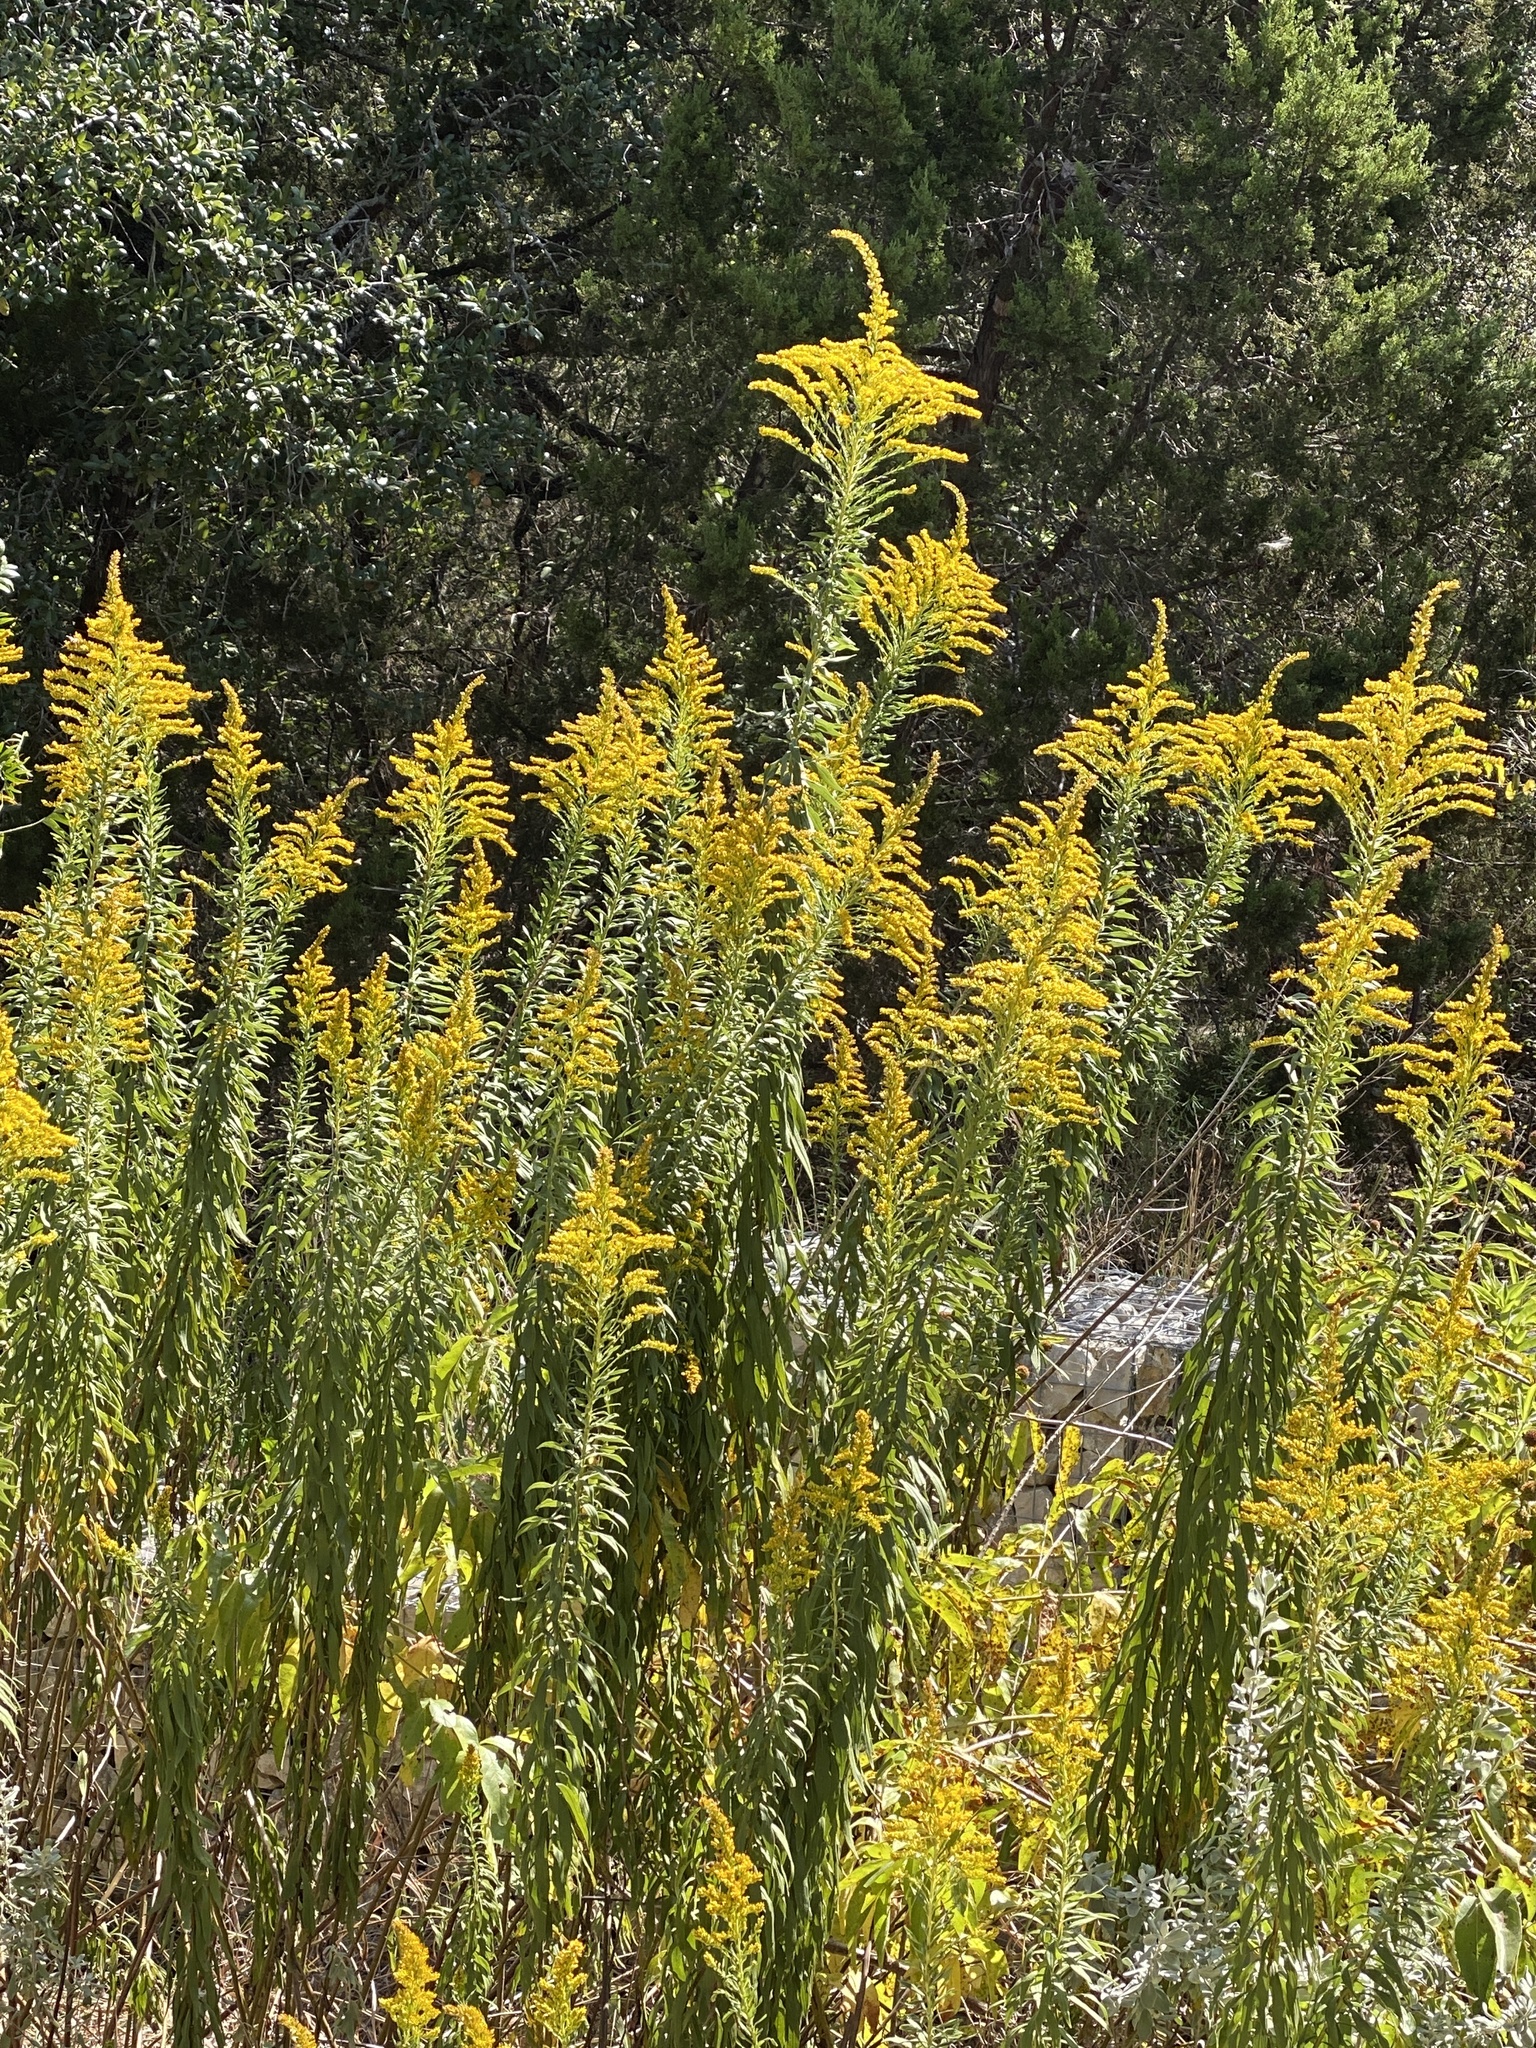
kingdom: Plantae
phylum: Tracheophyta
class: Magnoliopsida
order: Asterales
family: Asteraceae
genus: Solidago
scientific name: Solidago altissima
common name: Late goldenrod
